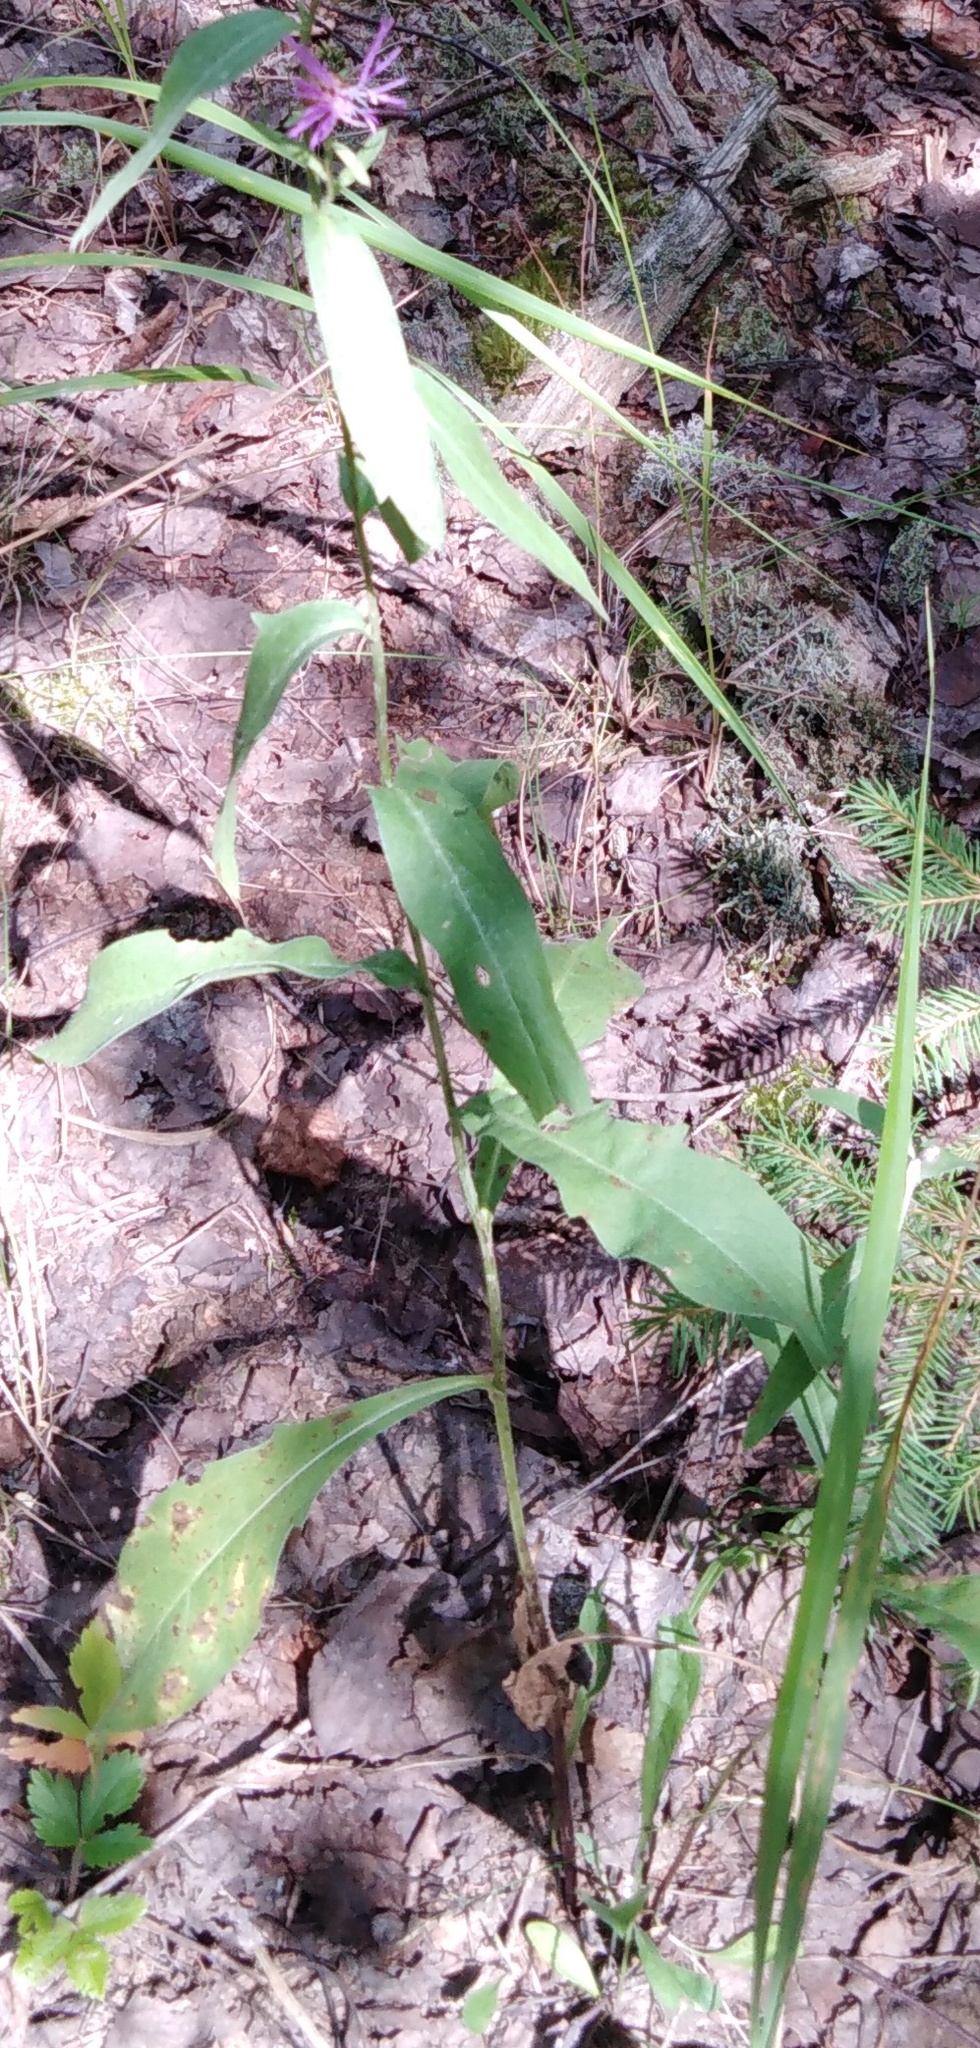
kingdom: Plantae
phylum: Tracheophyta
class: Magnoliopsida
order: Asterales
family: Asteraceae
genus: Centaurea
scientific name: Centaurea jacea
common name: Brown knapweed
